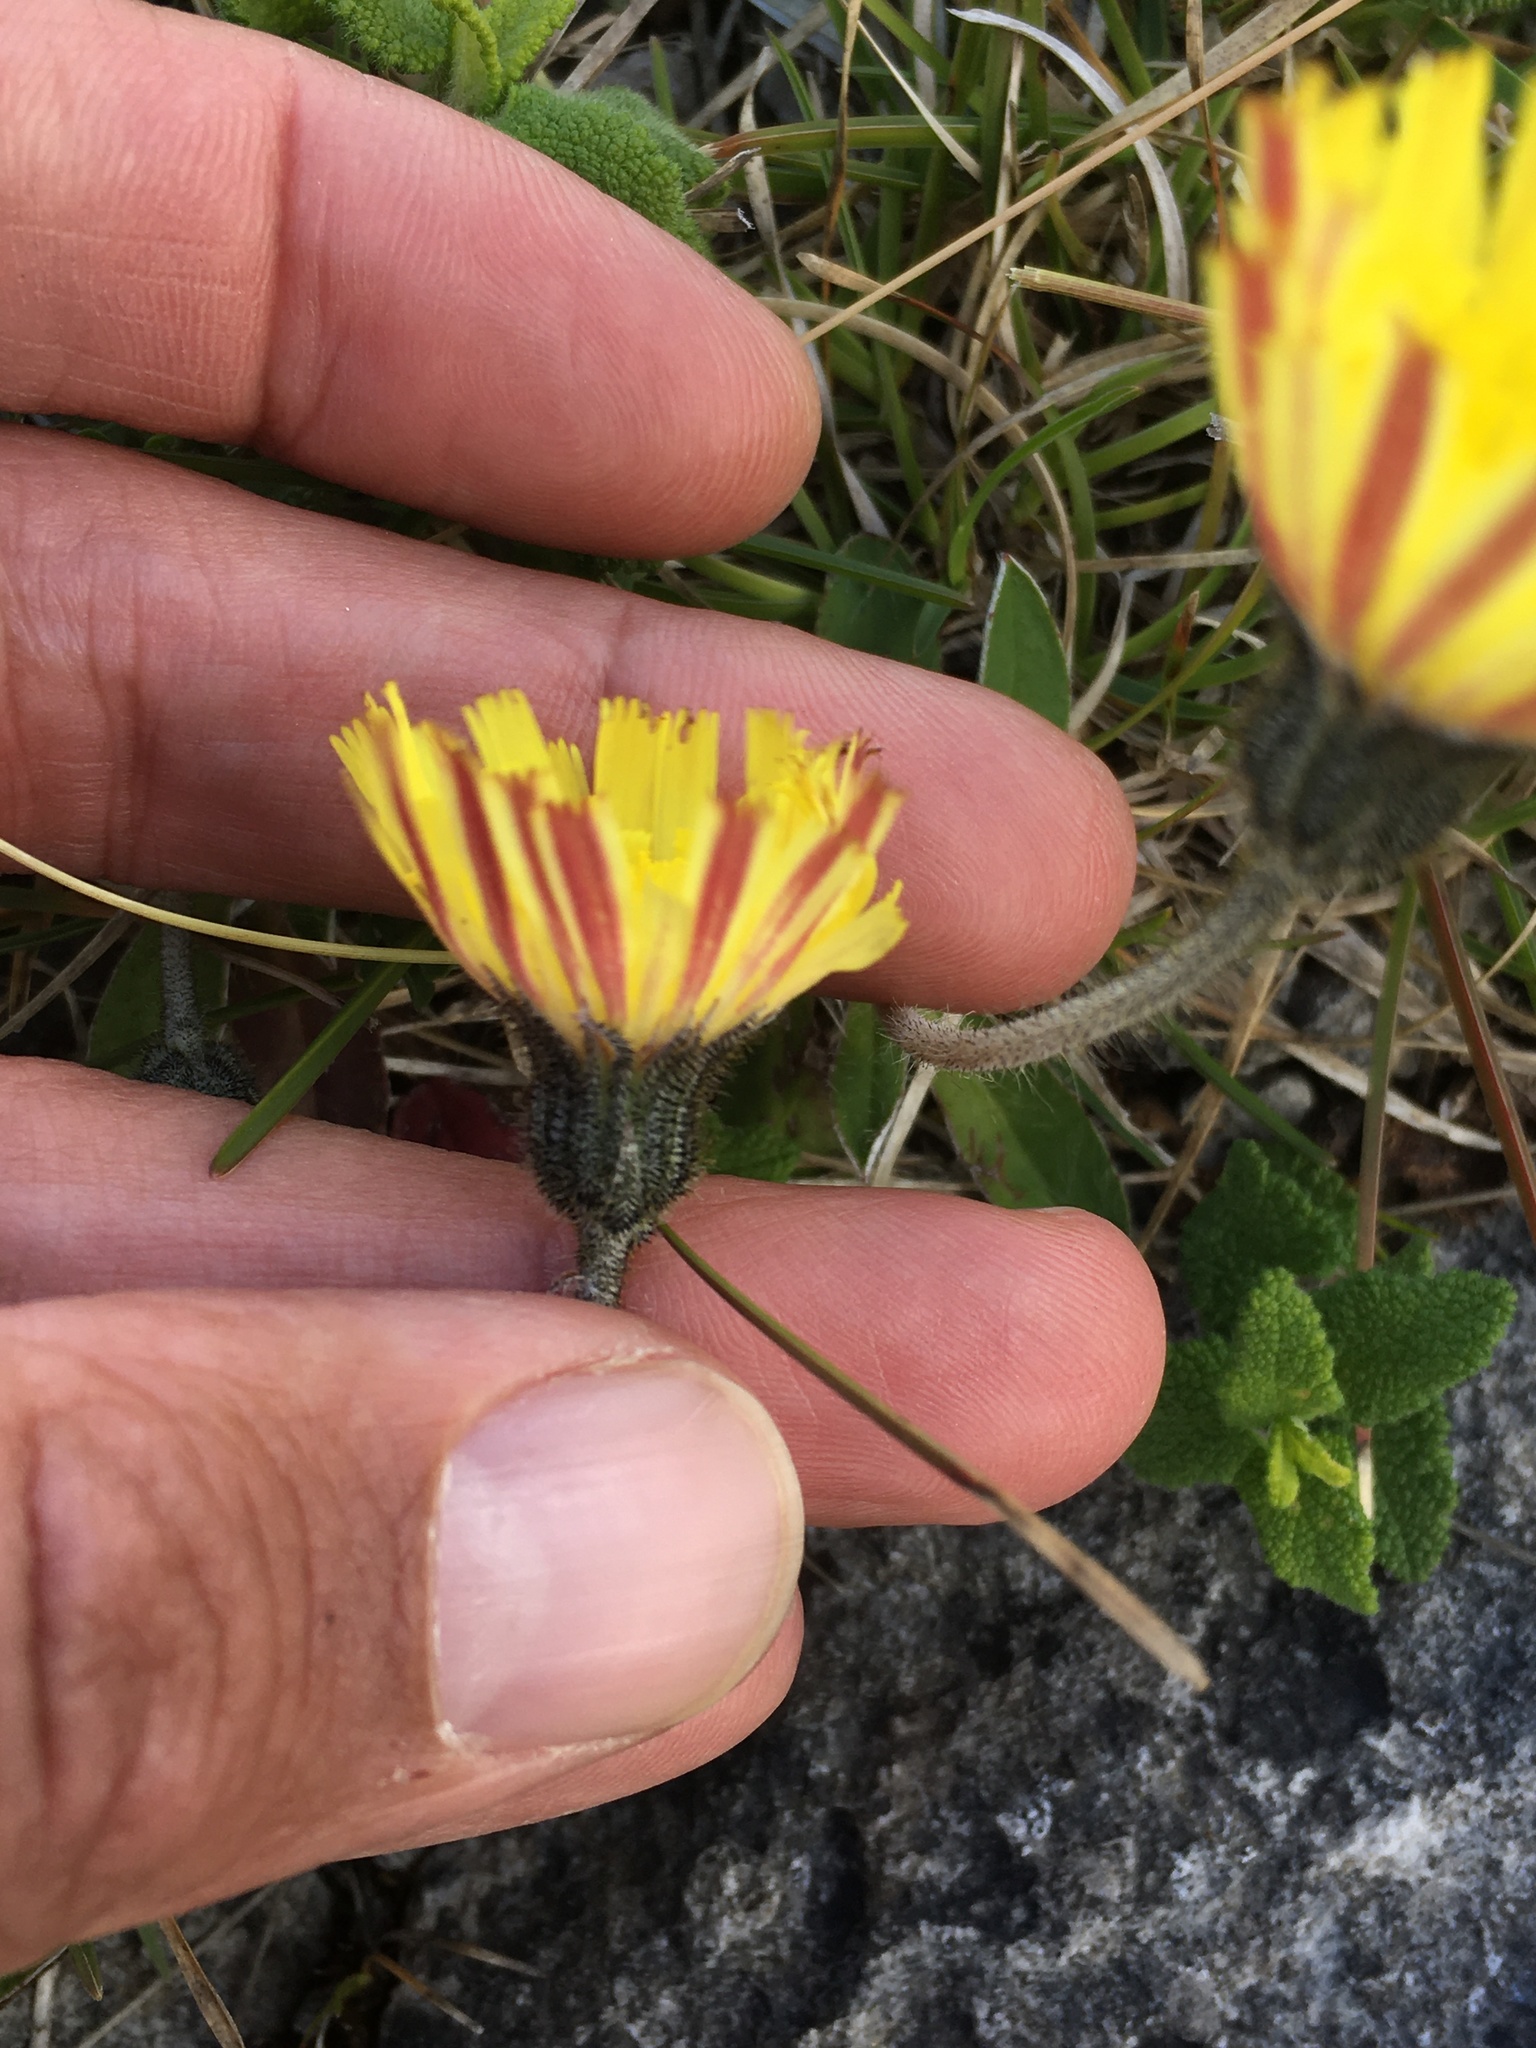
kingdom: Plantae
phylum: Tracheophyta
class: Magnoliopsida
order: Asterales
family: Asteraceae
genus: Pilosella
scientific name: Pilosella officinarum
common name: Mouse-ear hawkweed
